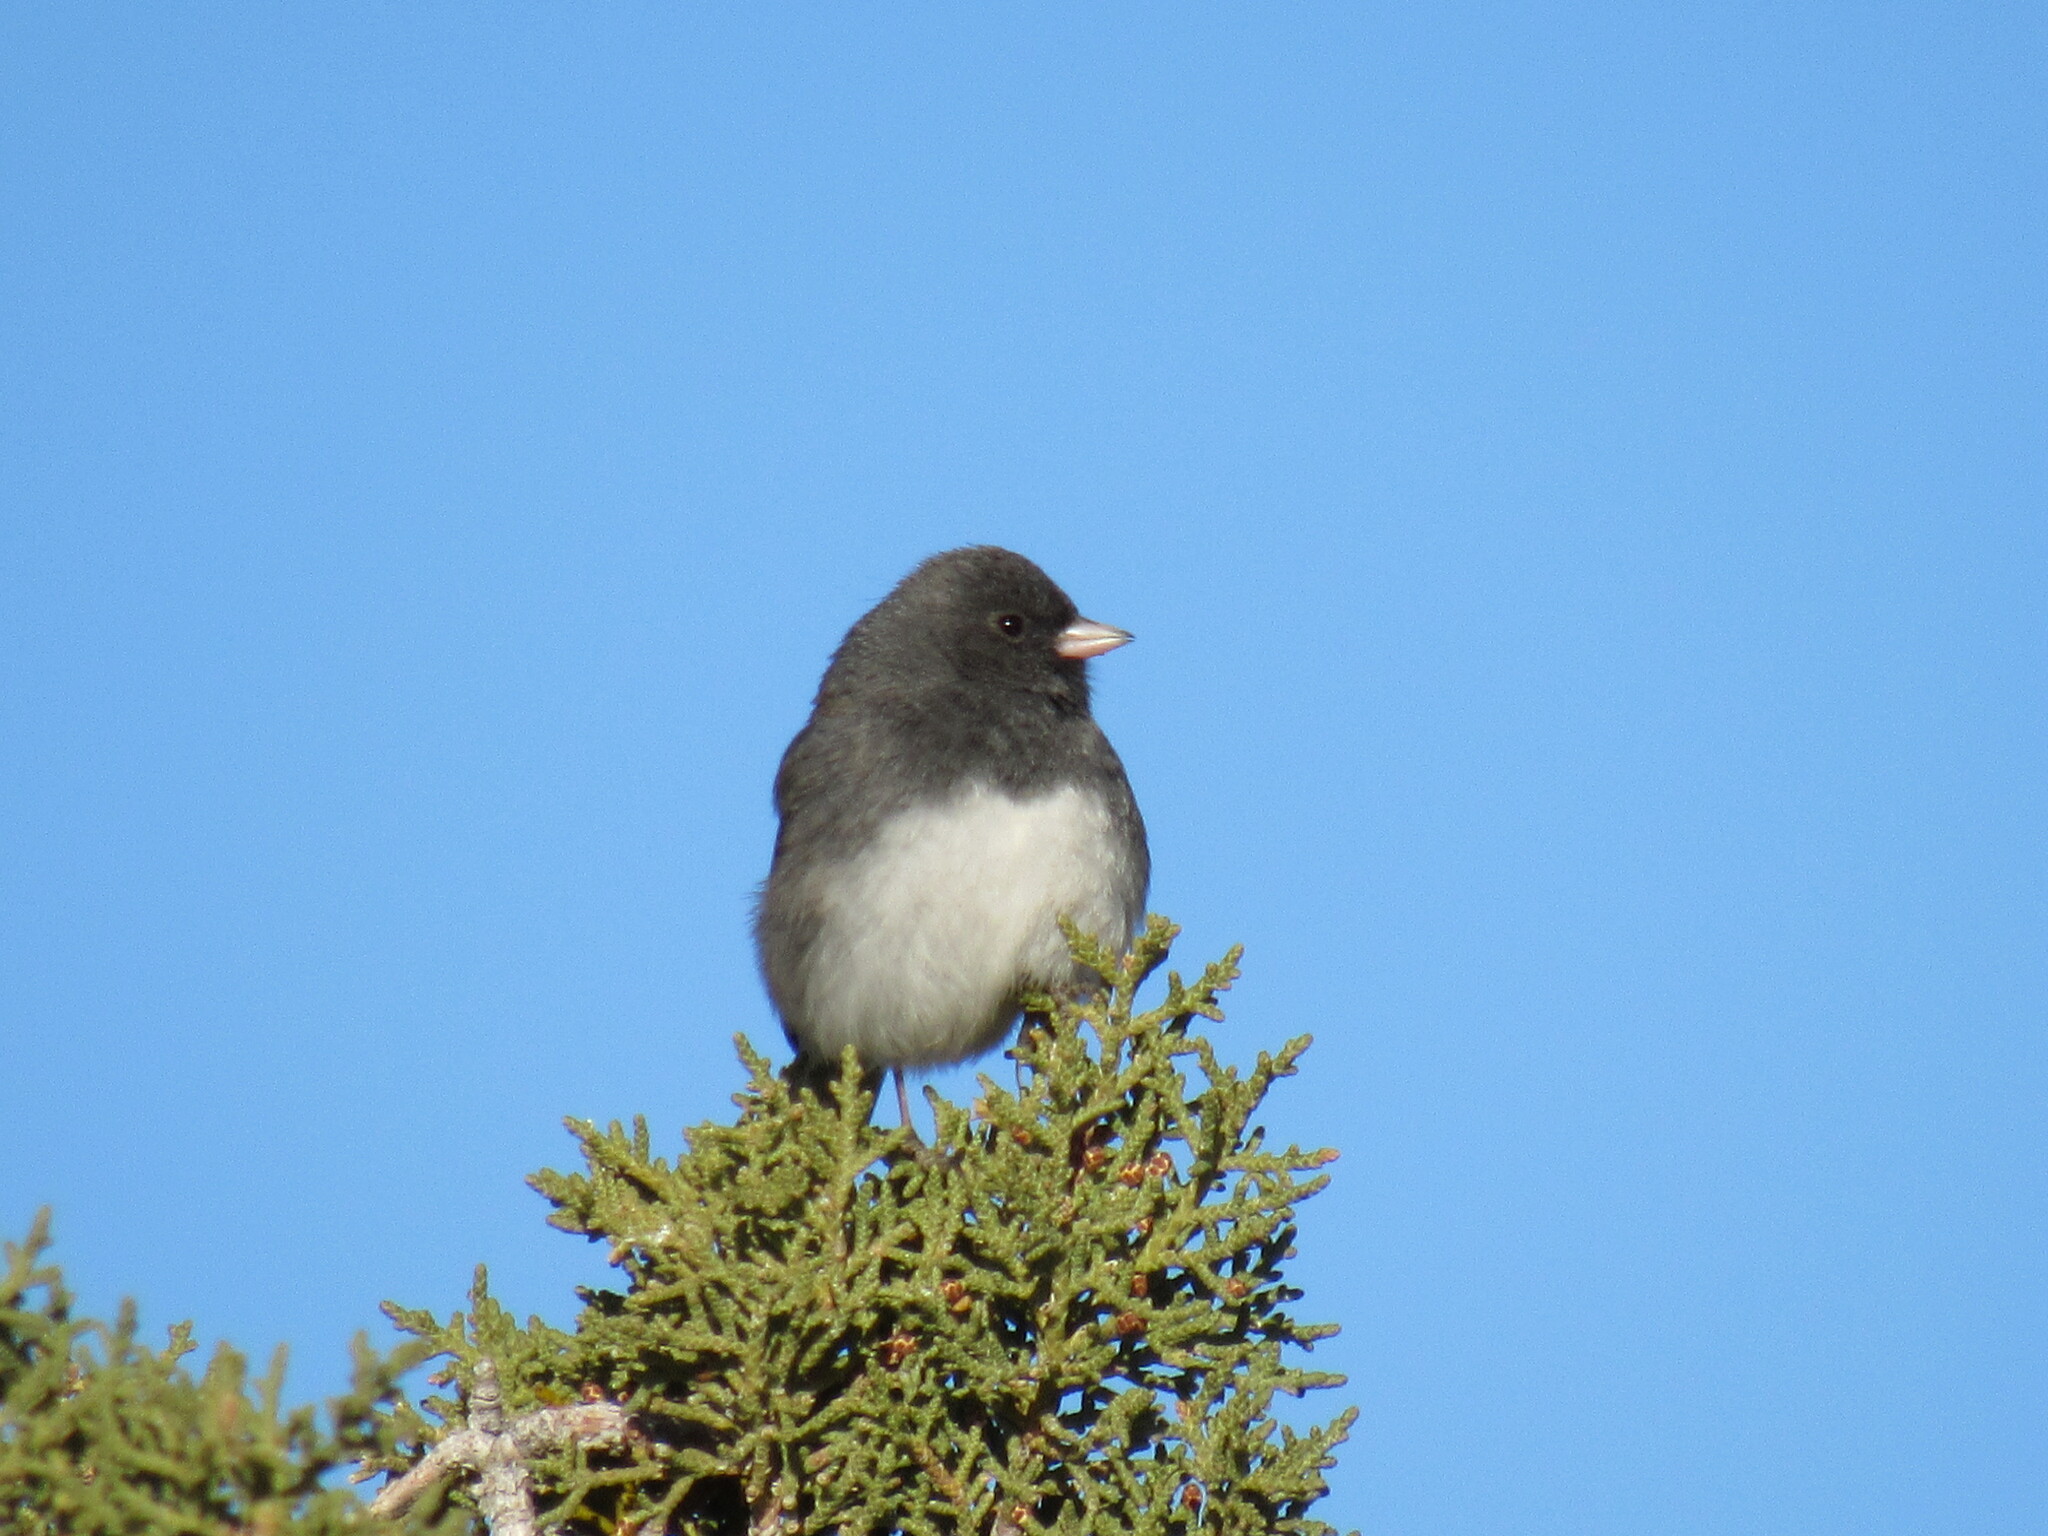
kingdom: Animalia
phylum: Chordata
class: Aves
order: Passeriformes
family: Passerellidae
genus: Junco
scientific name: Junco hyemalis
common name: Dark-eyed junco
